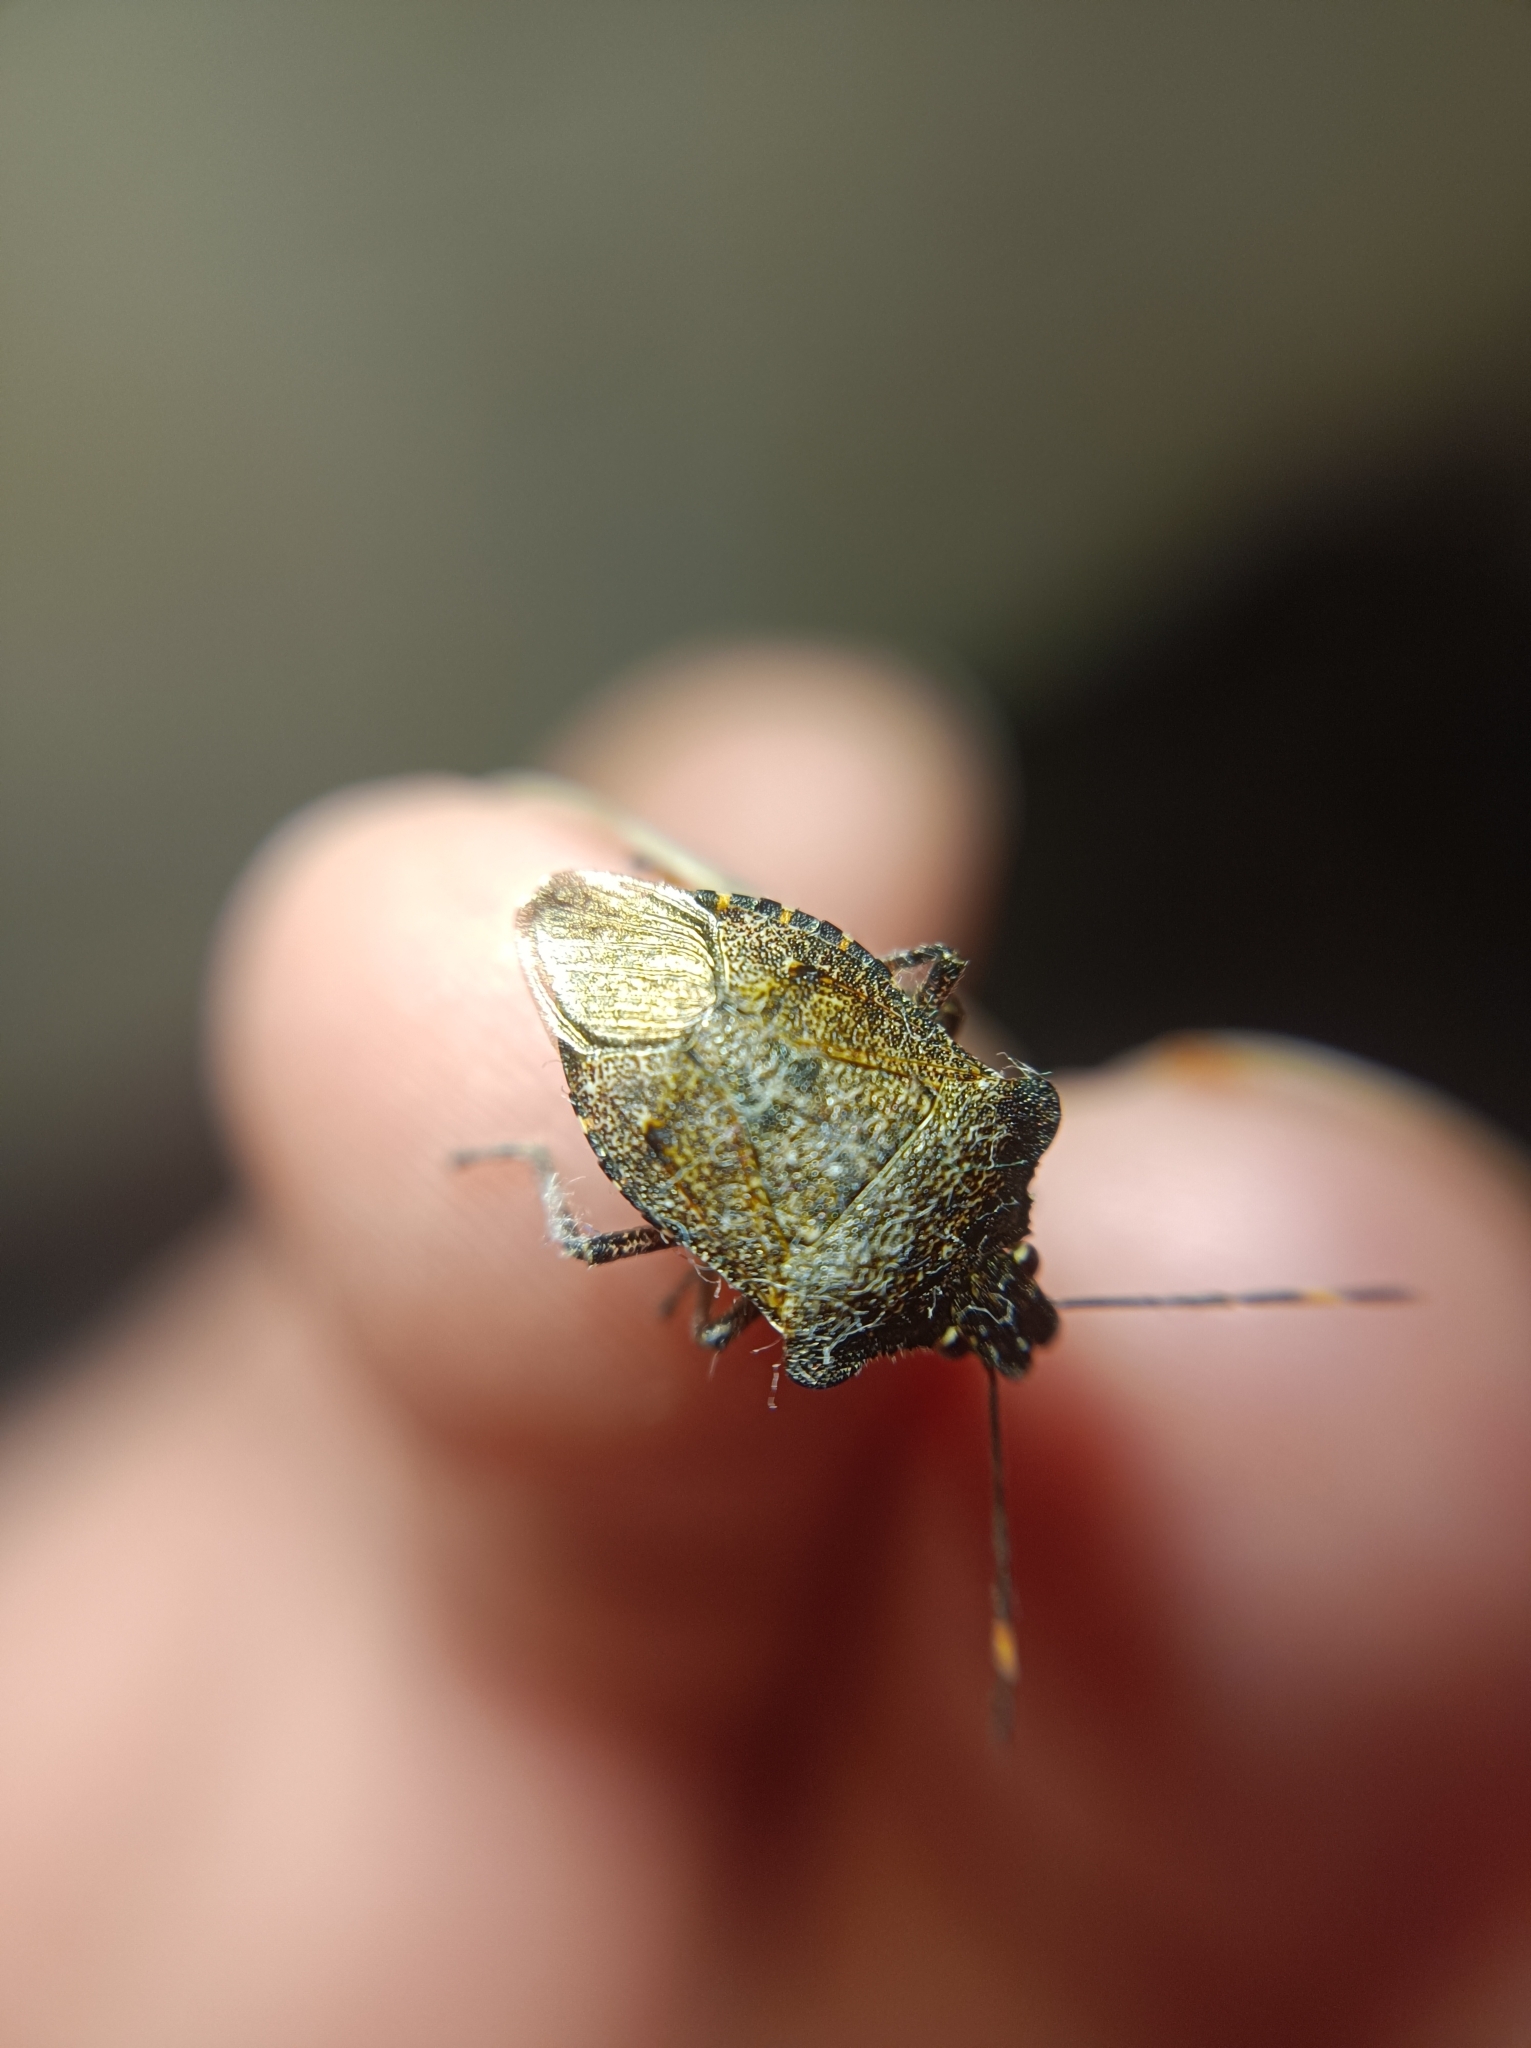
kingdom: Animalia
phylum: Arthropoda
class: Insecta
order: Hemiptera
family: Pentatomidae
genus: Troilus
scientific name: Troilus luridus
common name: Bronze shieldbug
